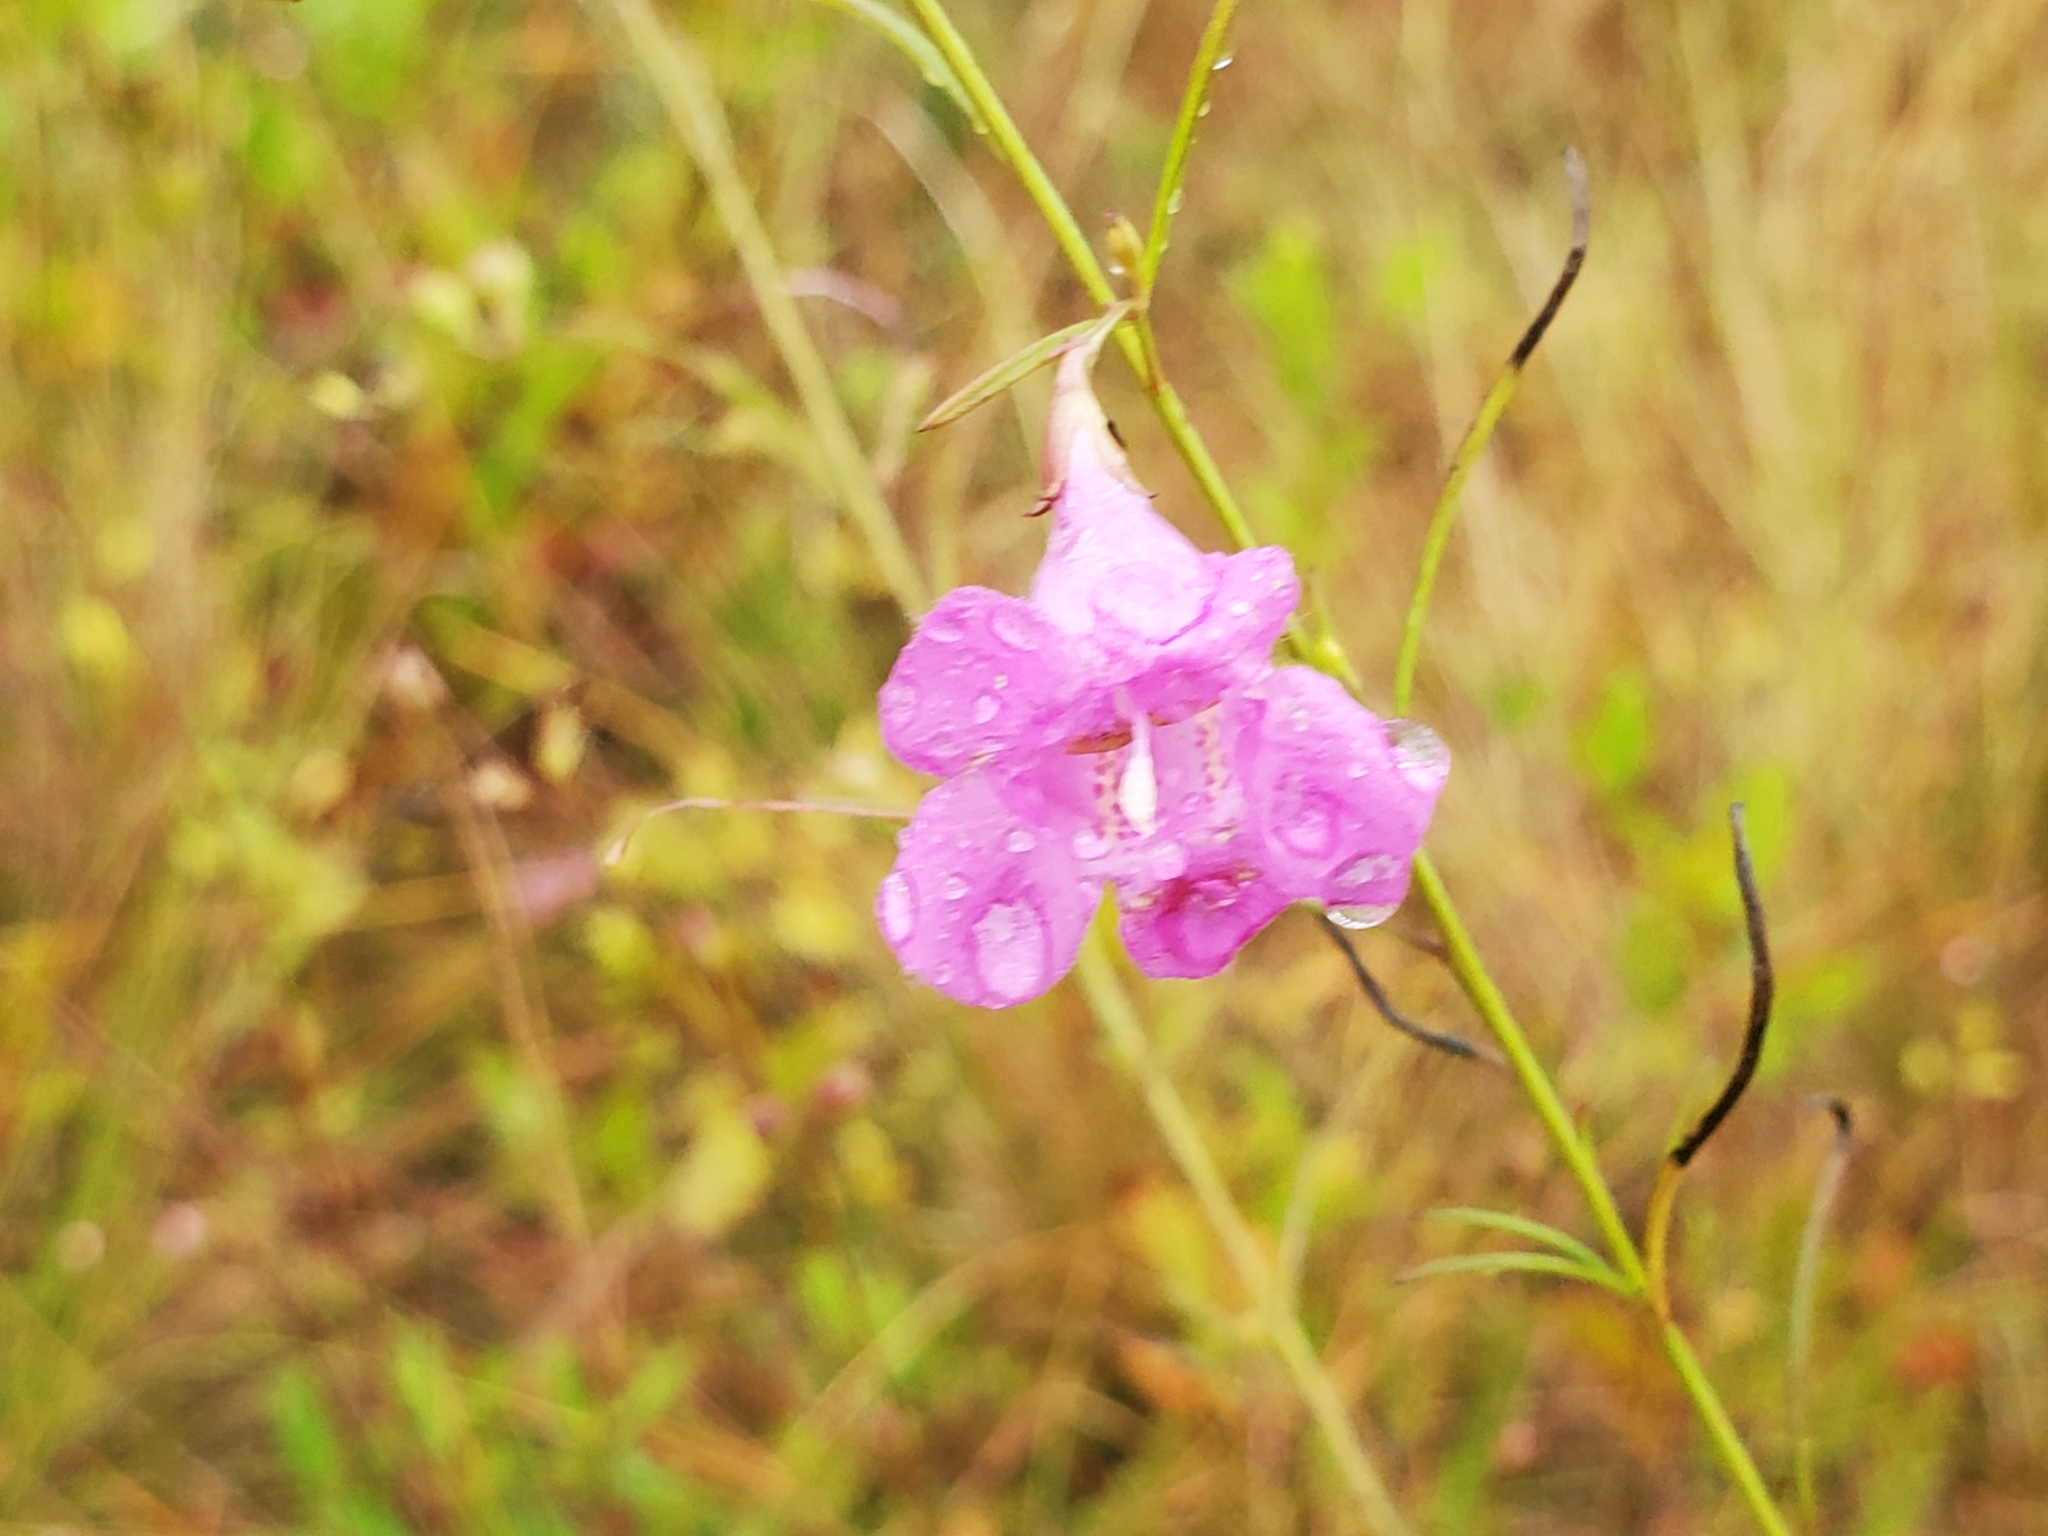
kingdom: Plantae
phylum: Tracheophyta
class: Magnoliopsida
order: Lamiales
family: Orobanchaceae
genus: Agalinis
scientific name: Agalinis purpurea
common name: Purple false foxglove
